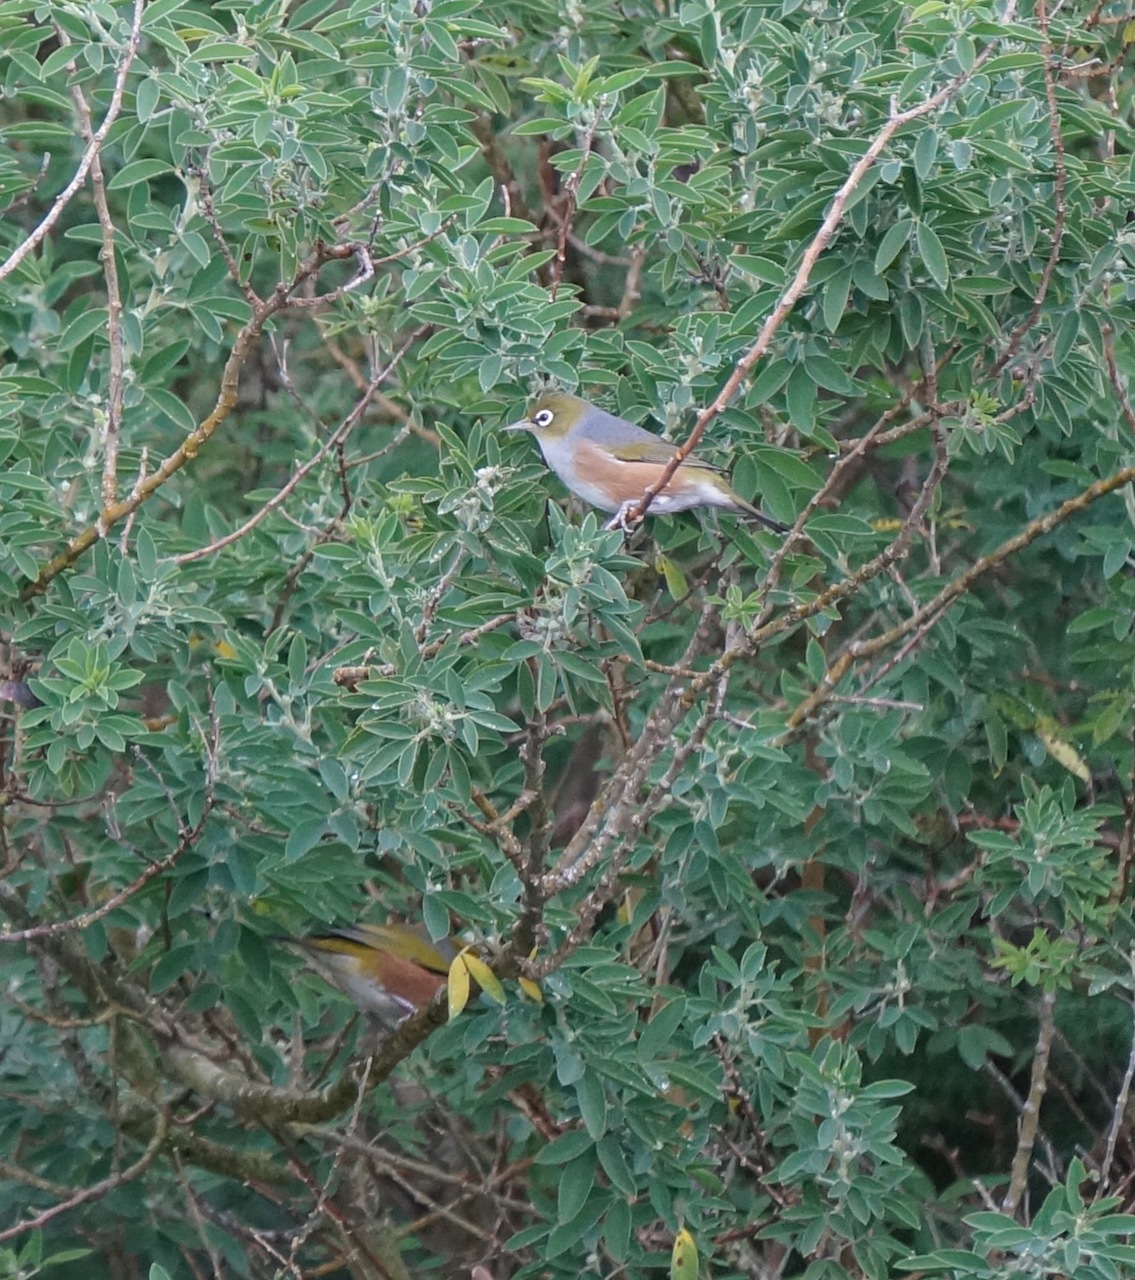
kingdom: Animalia
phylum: Chordata
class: Aves
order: Passeriformes
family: Zosteropidae
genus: Zosterops
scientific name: Zosterops lateralis
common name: Silvereye
